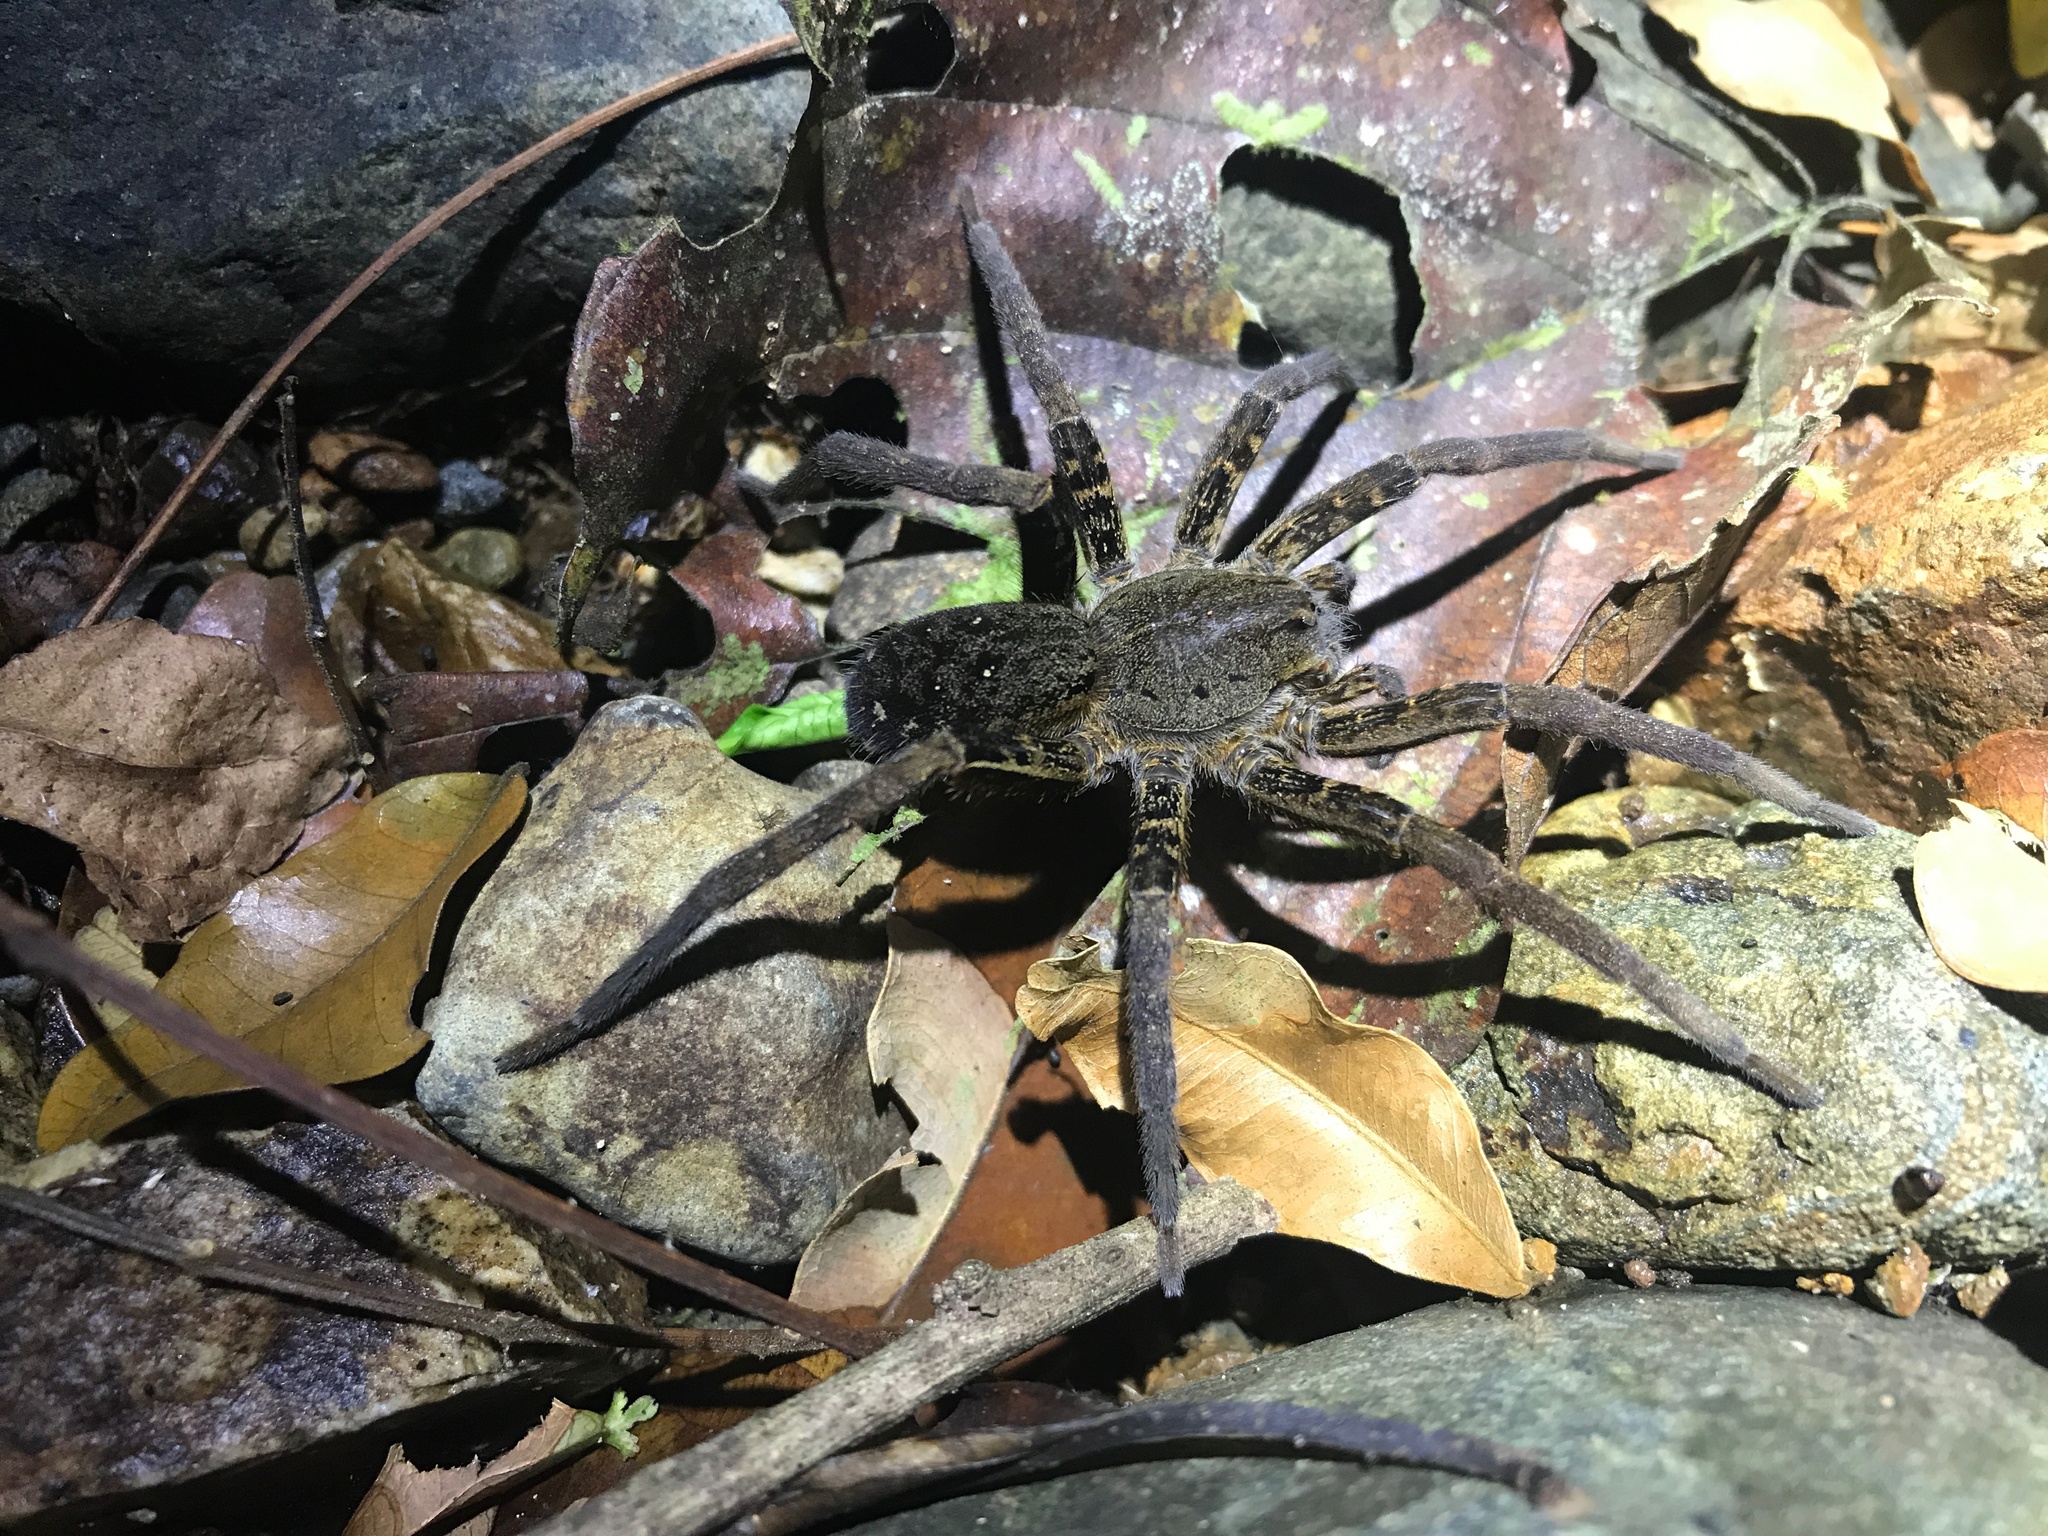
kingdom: Animalia
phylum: Arthropoda
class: Arachnida
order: Araneae
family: Ctenidae
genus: Ancylometes
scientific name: Ancylometes bogotensis
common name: Wandering spiders
